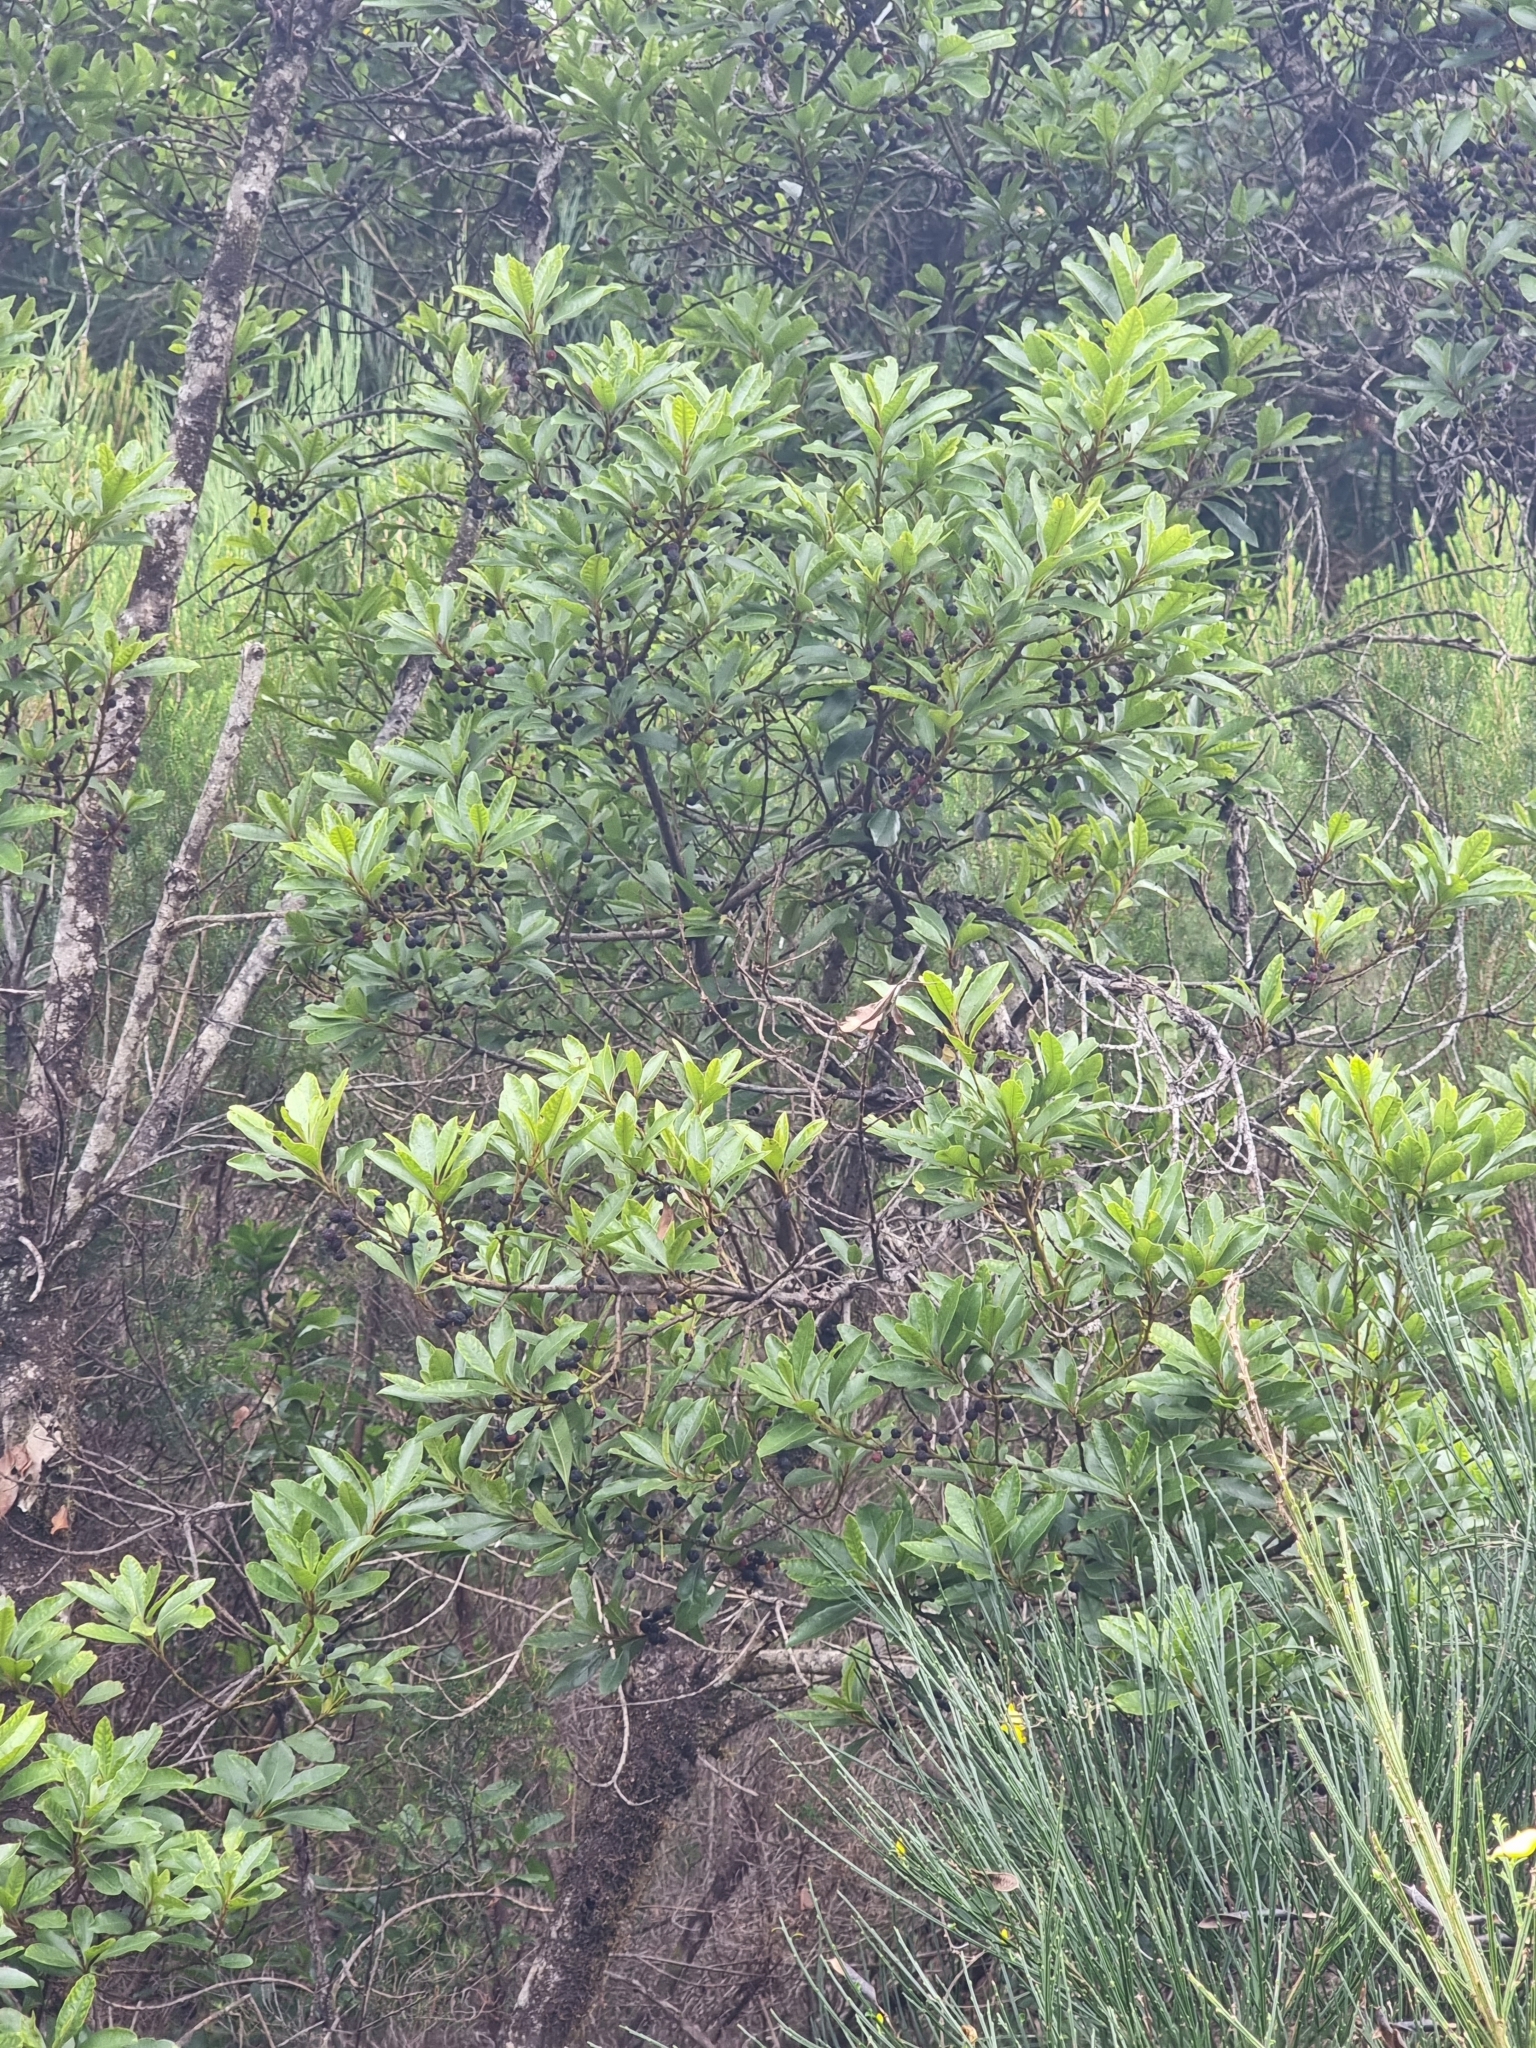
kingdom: Plantae
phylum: Tracheophyta
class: Magnoliopsida
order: Fagales
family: Myricaceae
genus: Morella
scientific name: Morella faya
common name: Firetree
